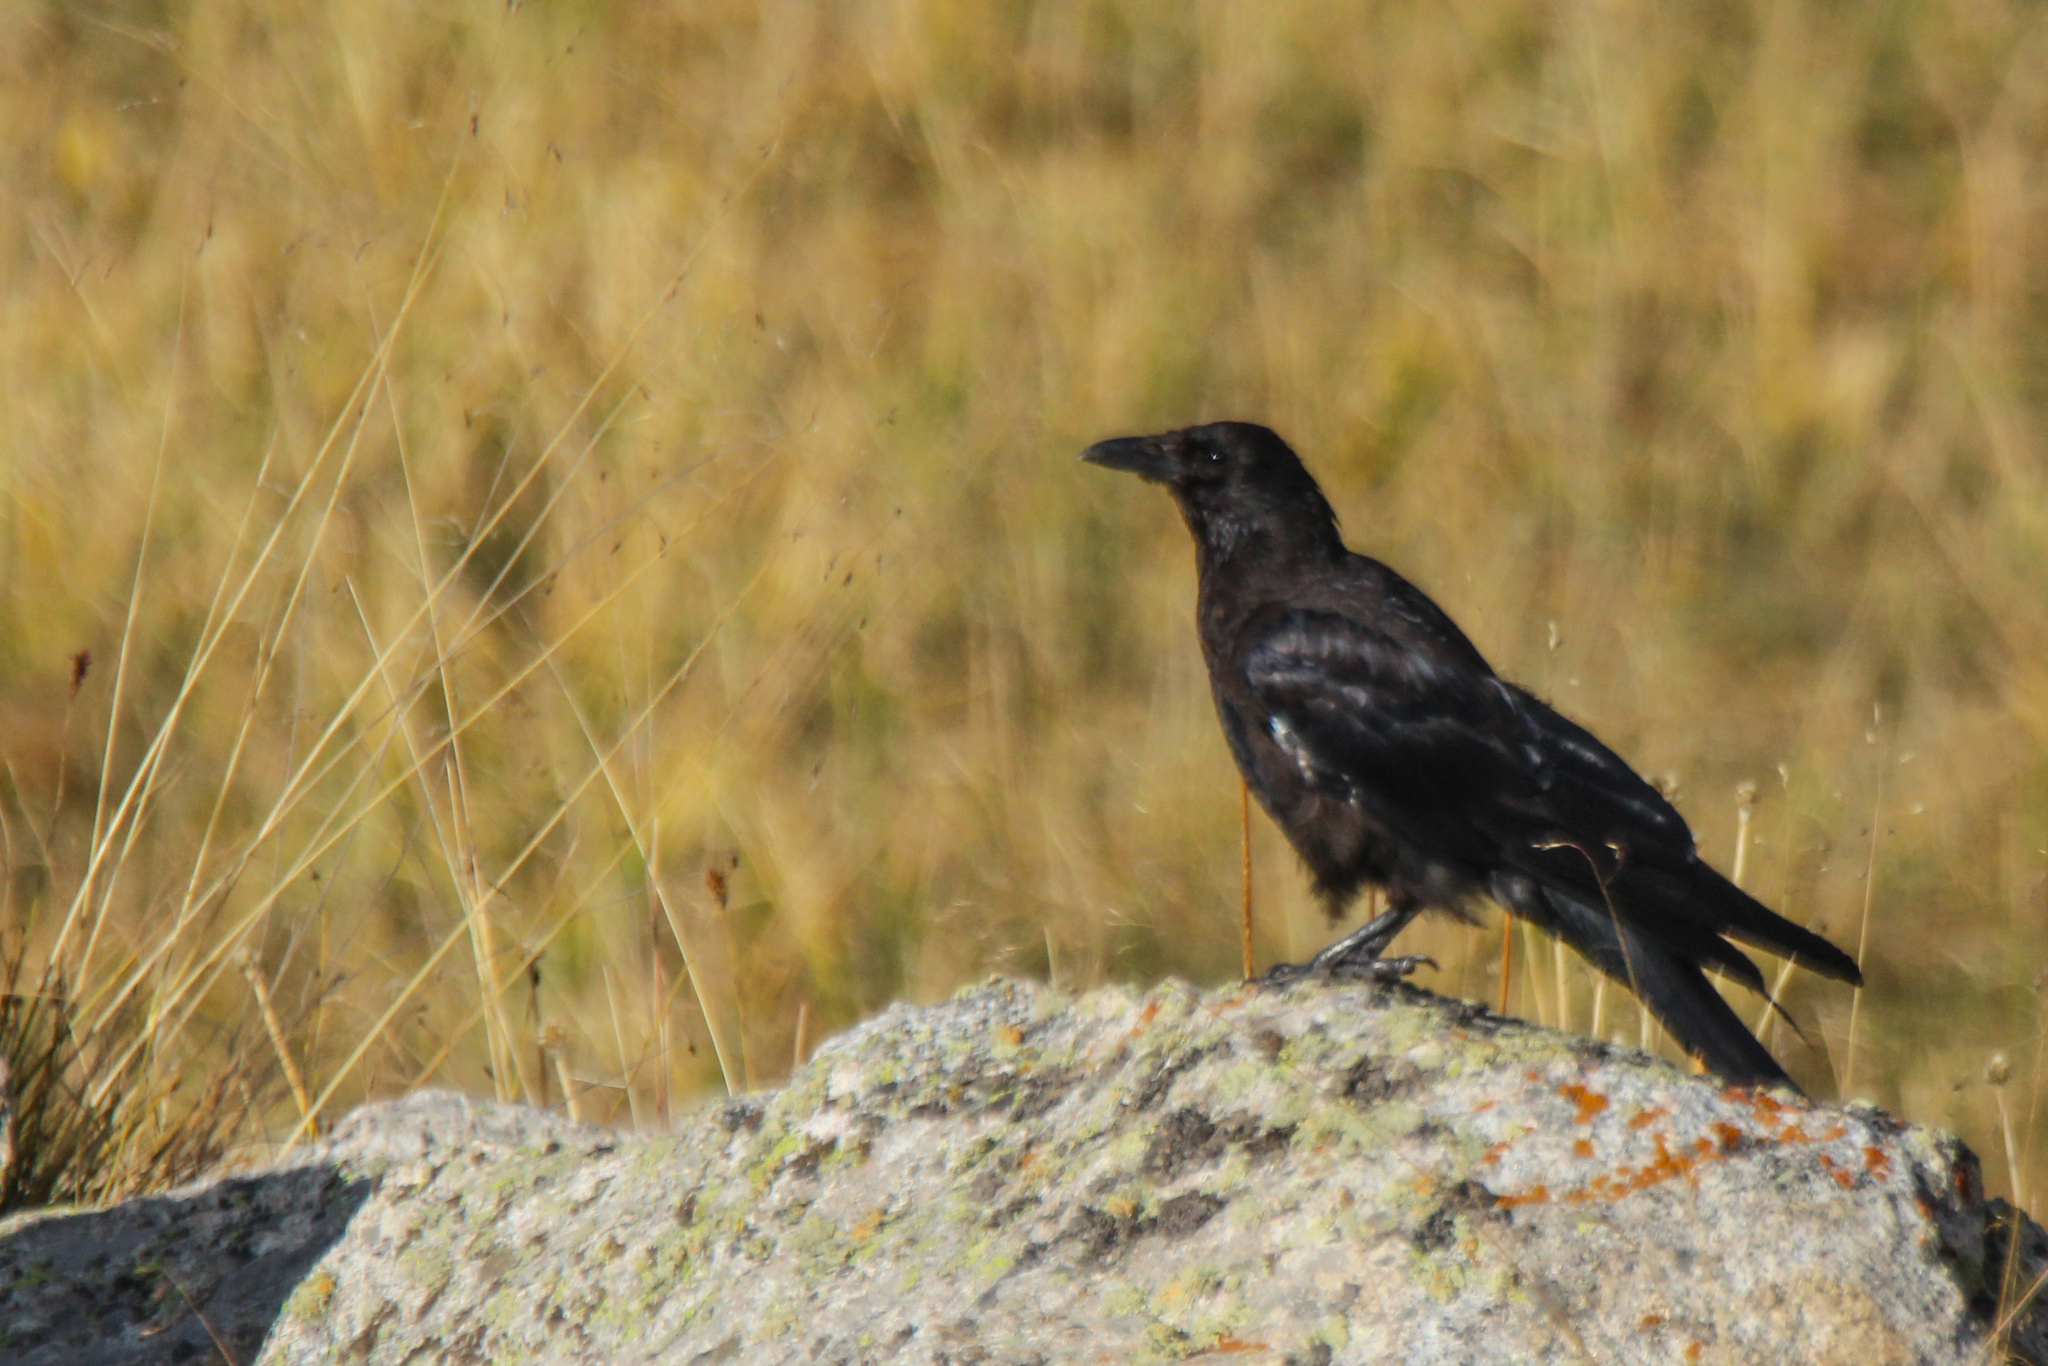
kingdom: Animalia
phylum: Chordata
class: Aves
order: Passeriformes
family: Corvidae
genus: Corvus
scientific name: Corvus corone
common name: Carrion crow
